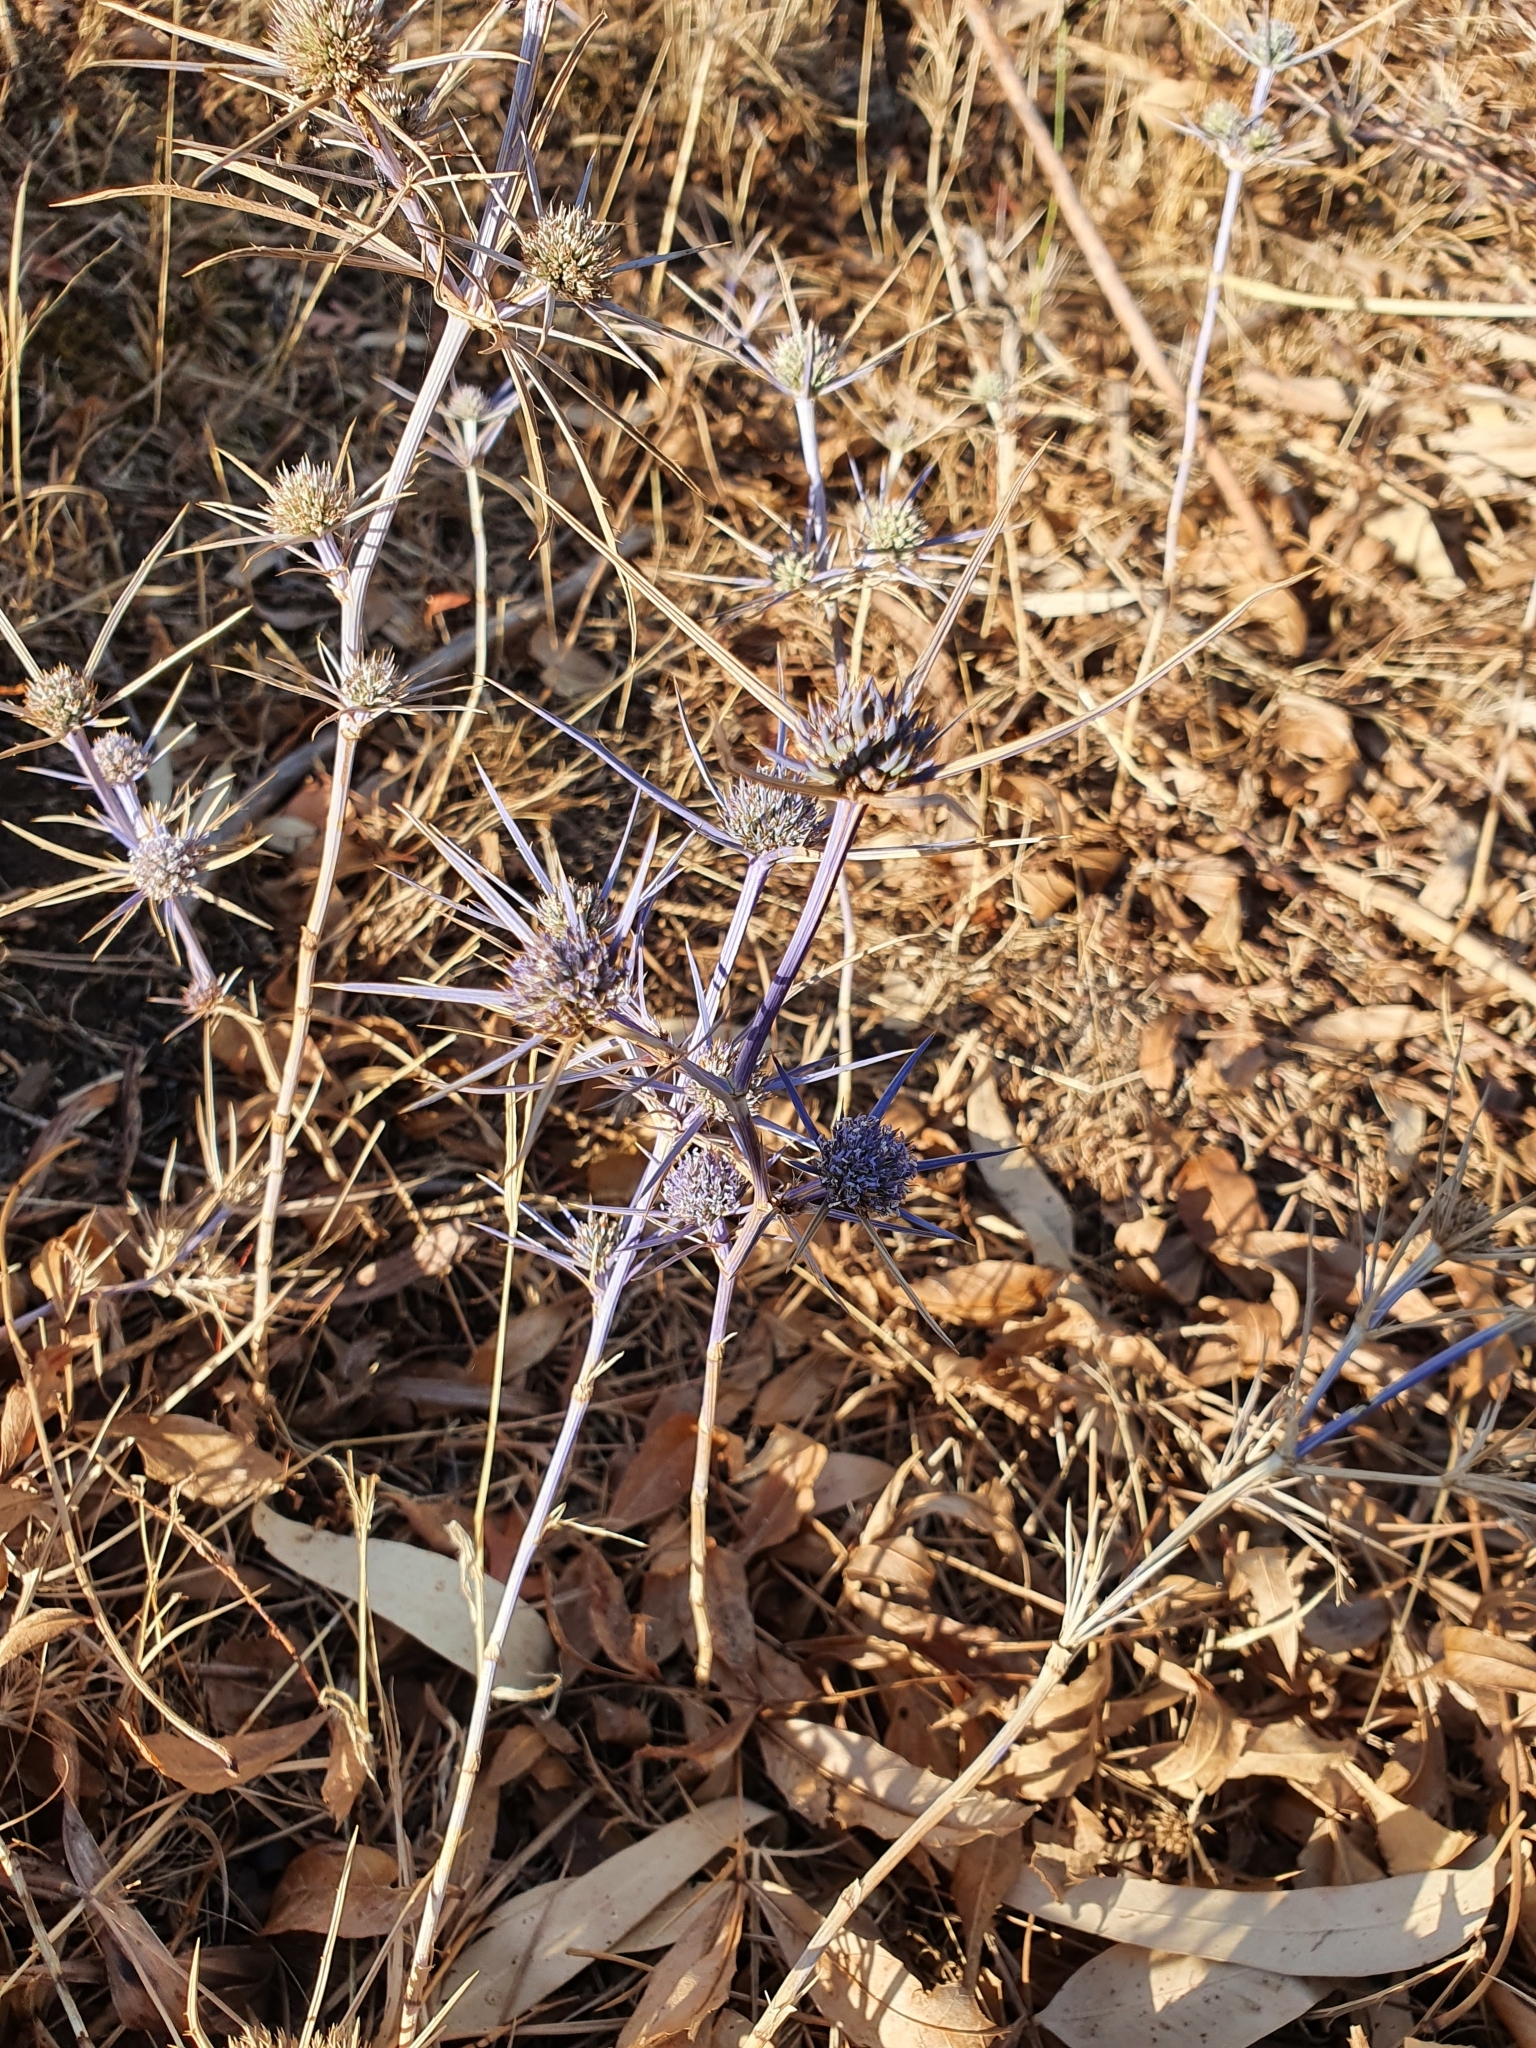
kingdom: Plantae
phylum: Tracheophyta
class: Magnoliopsida
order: Apiales
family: Apiaceae
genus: Eryngium
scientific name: Eryngium tricuspidatum
